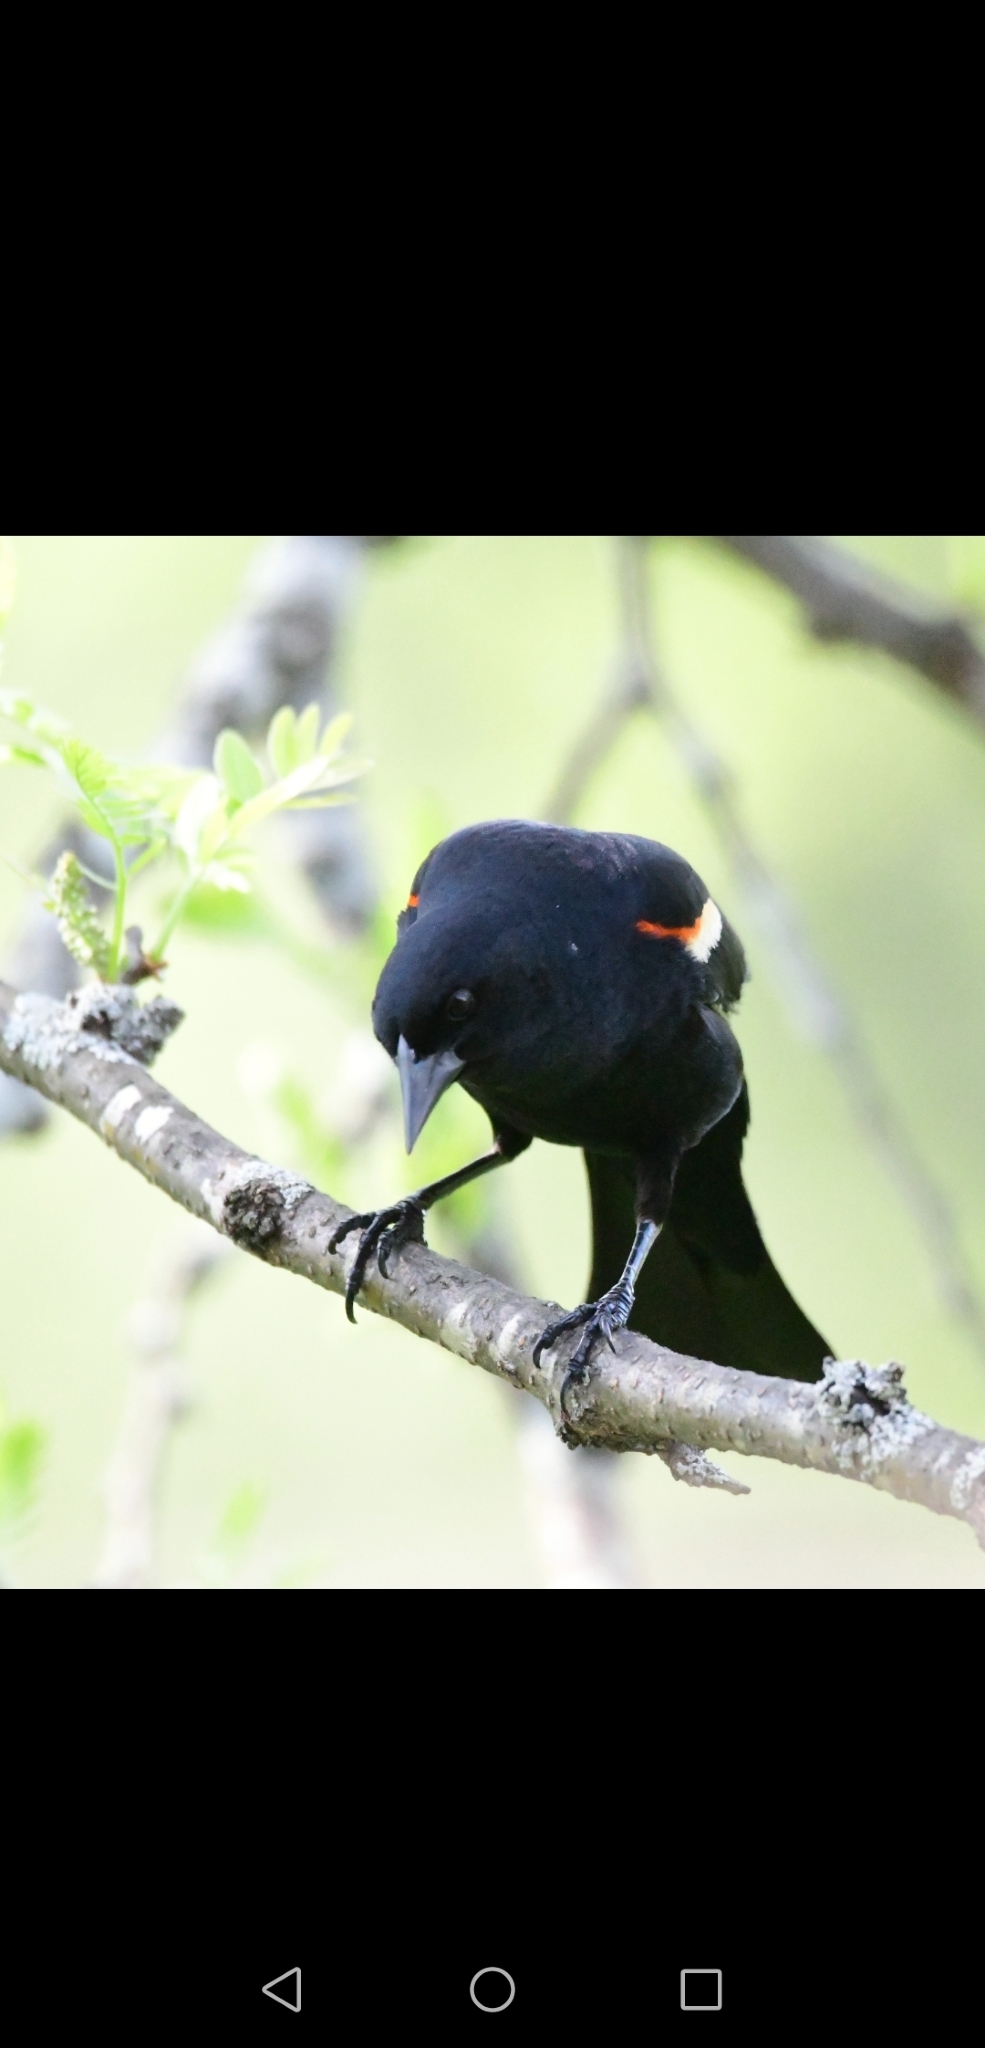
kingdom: Animalia
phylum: Chordata
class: Aves
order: Passeriformes
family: Icteridae
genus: Agelaius
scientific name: Agelaius phoeniceus
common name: Red-winged blackbird
